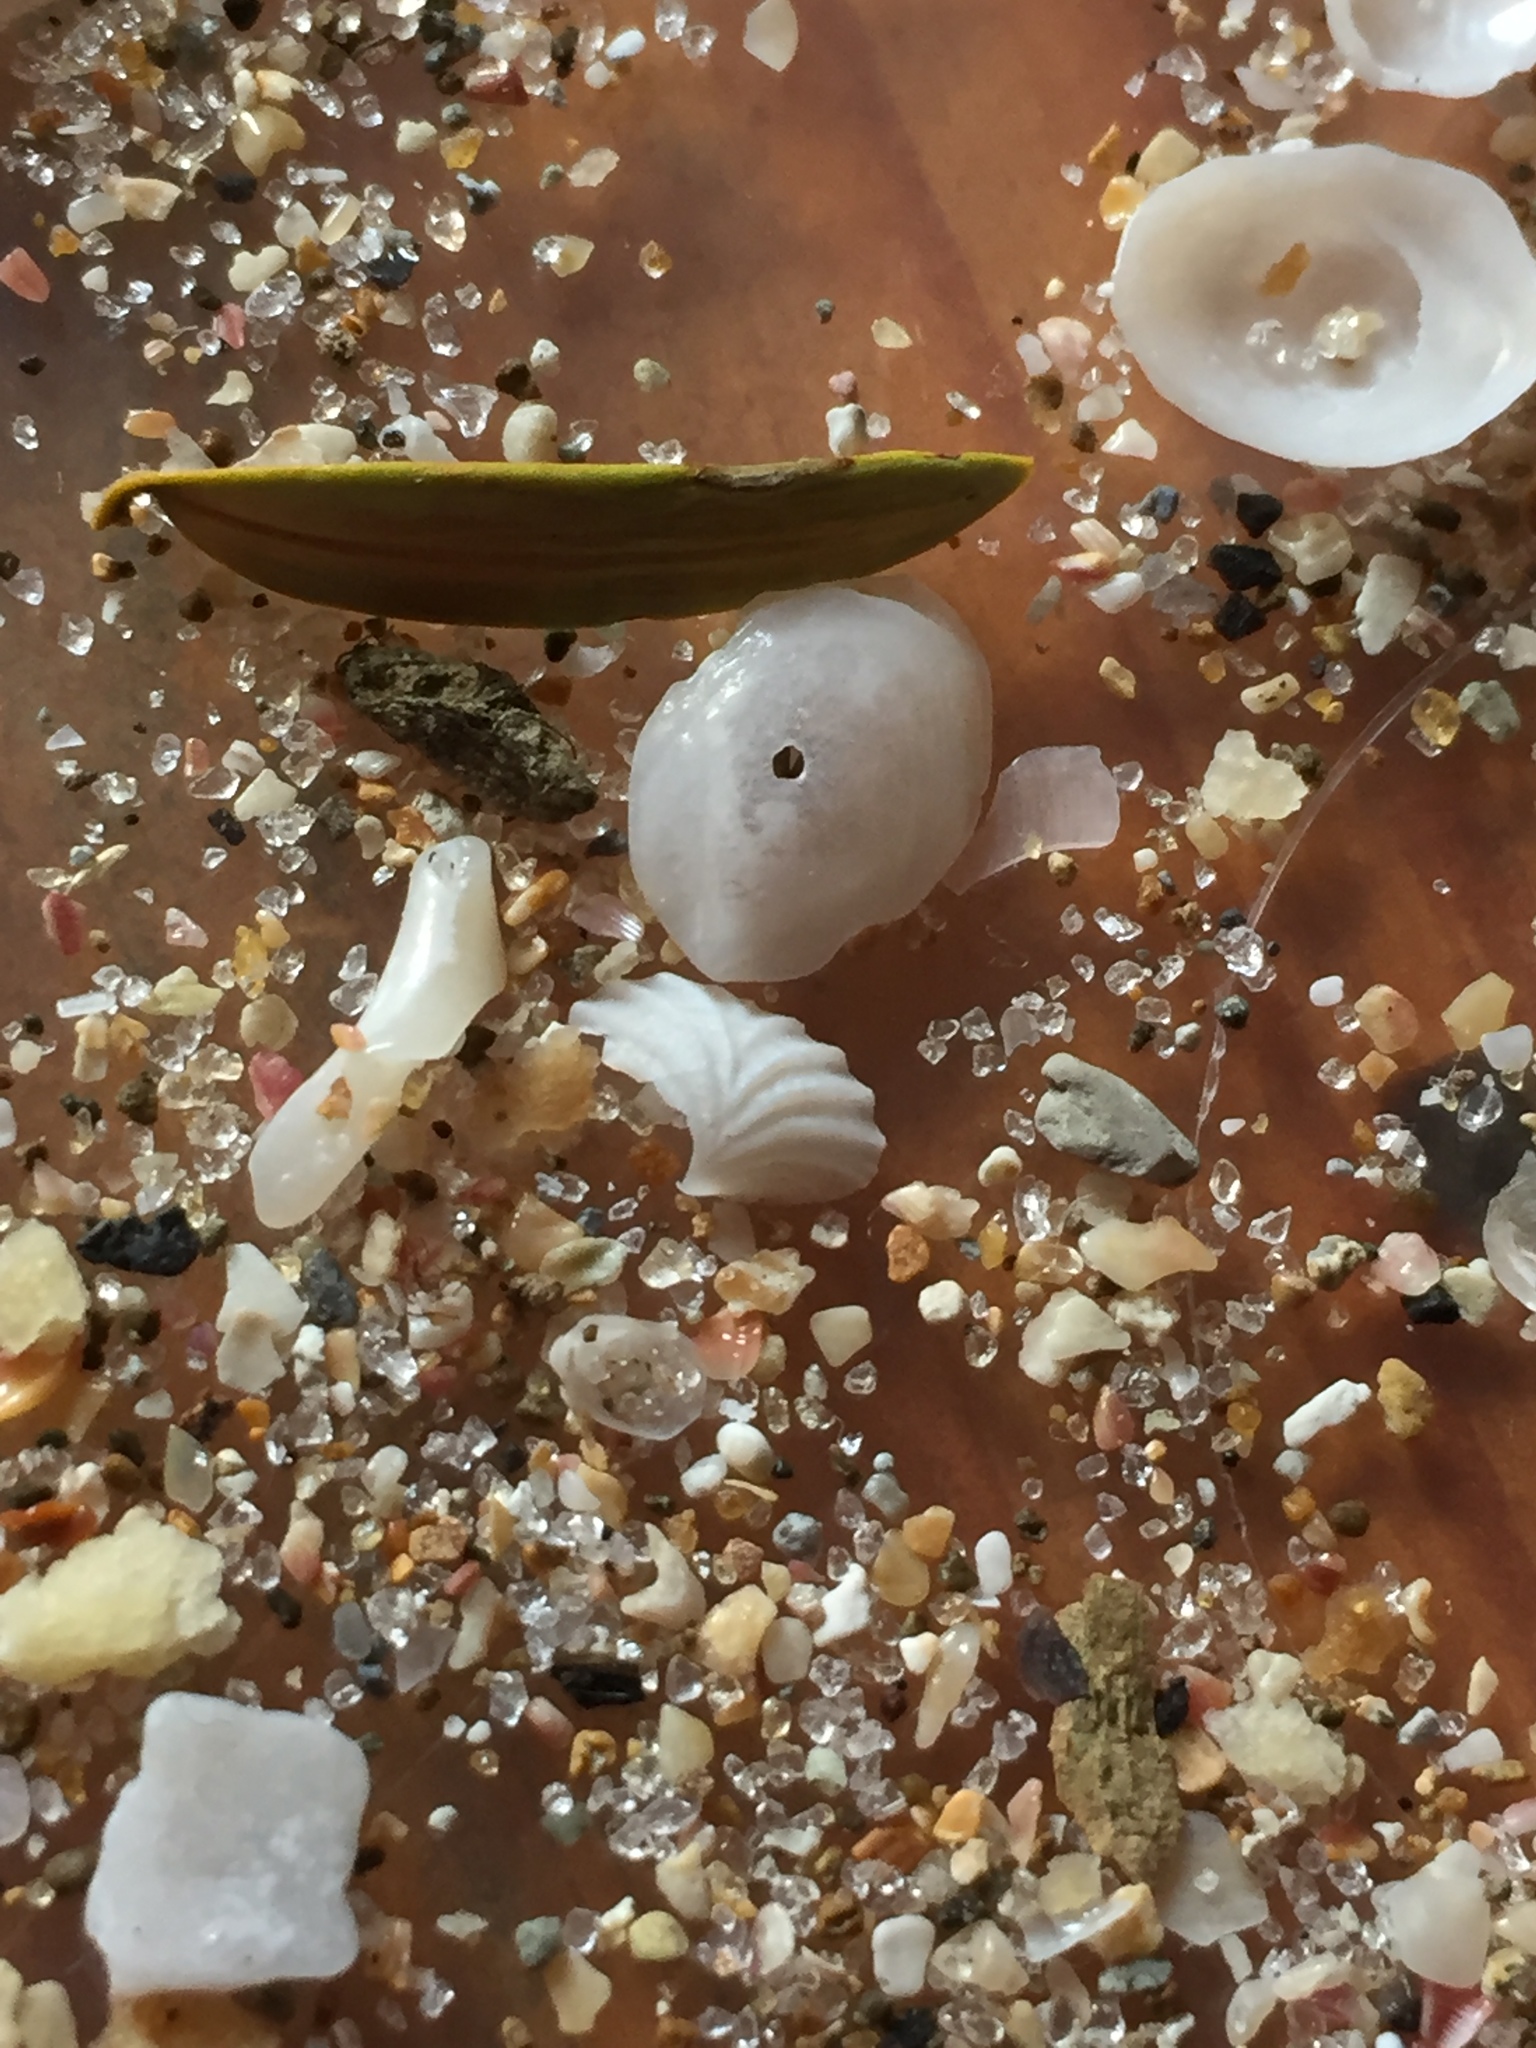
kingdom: Animalia
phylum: Mollusca
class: Bivalvia
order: Galeommatida
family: Lasaeidae
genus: Myllita
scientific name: Myllita stowei
